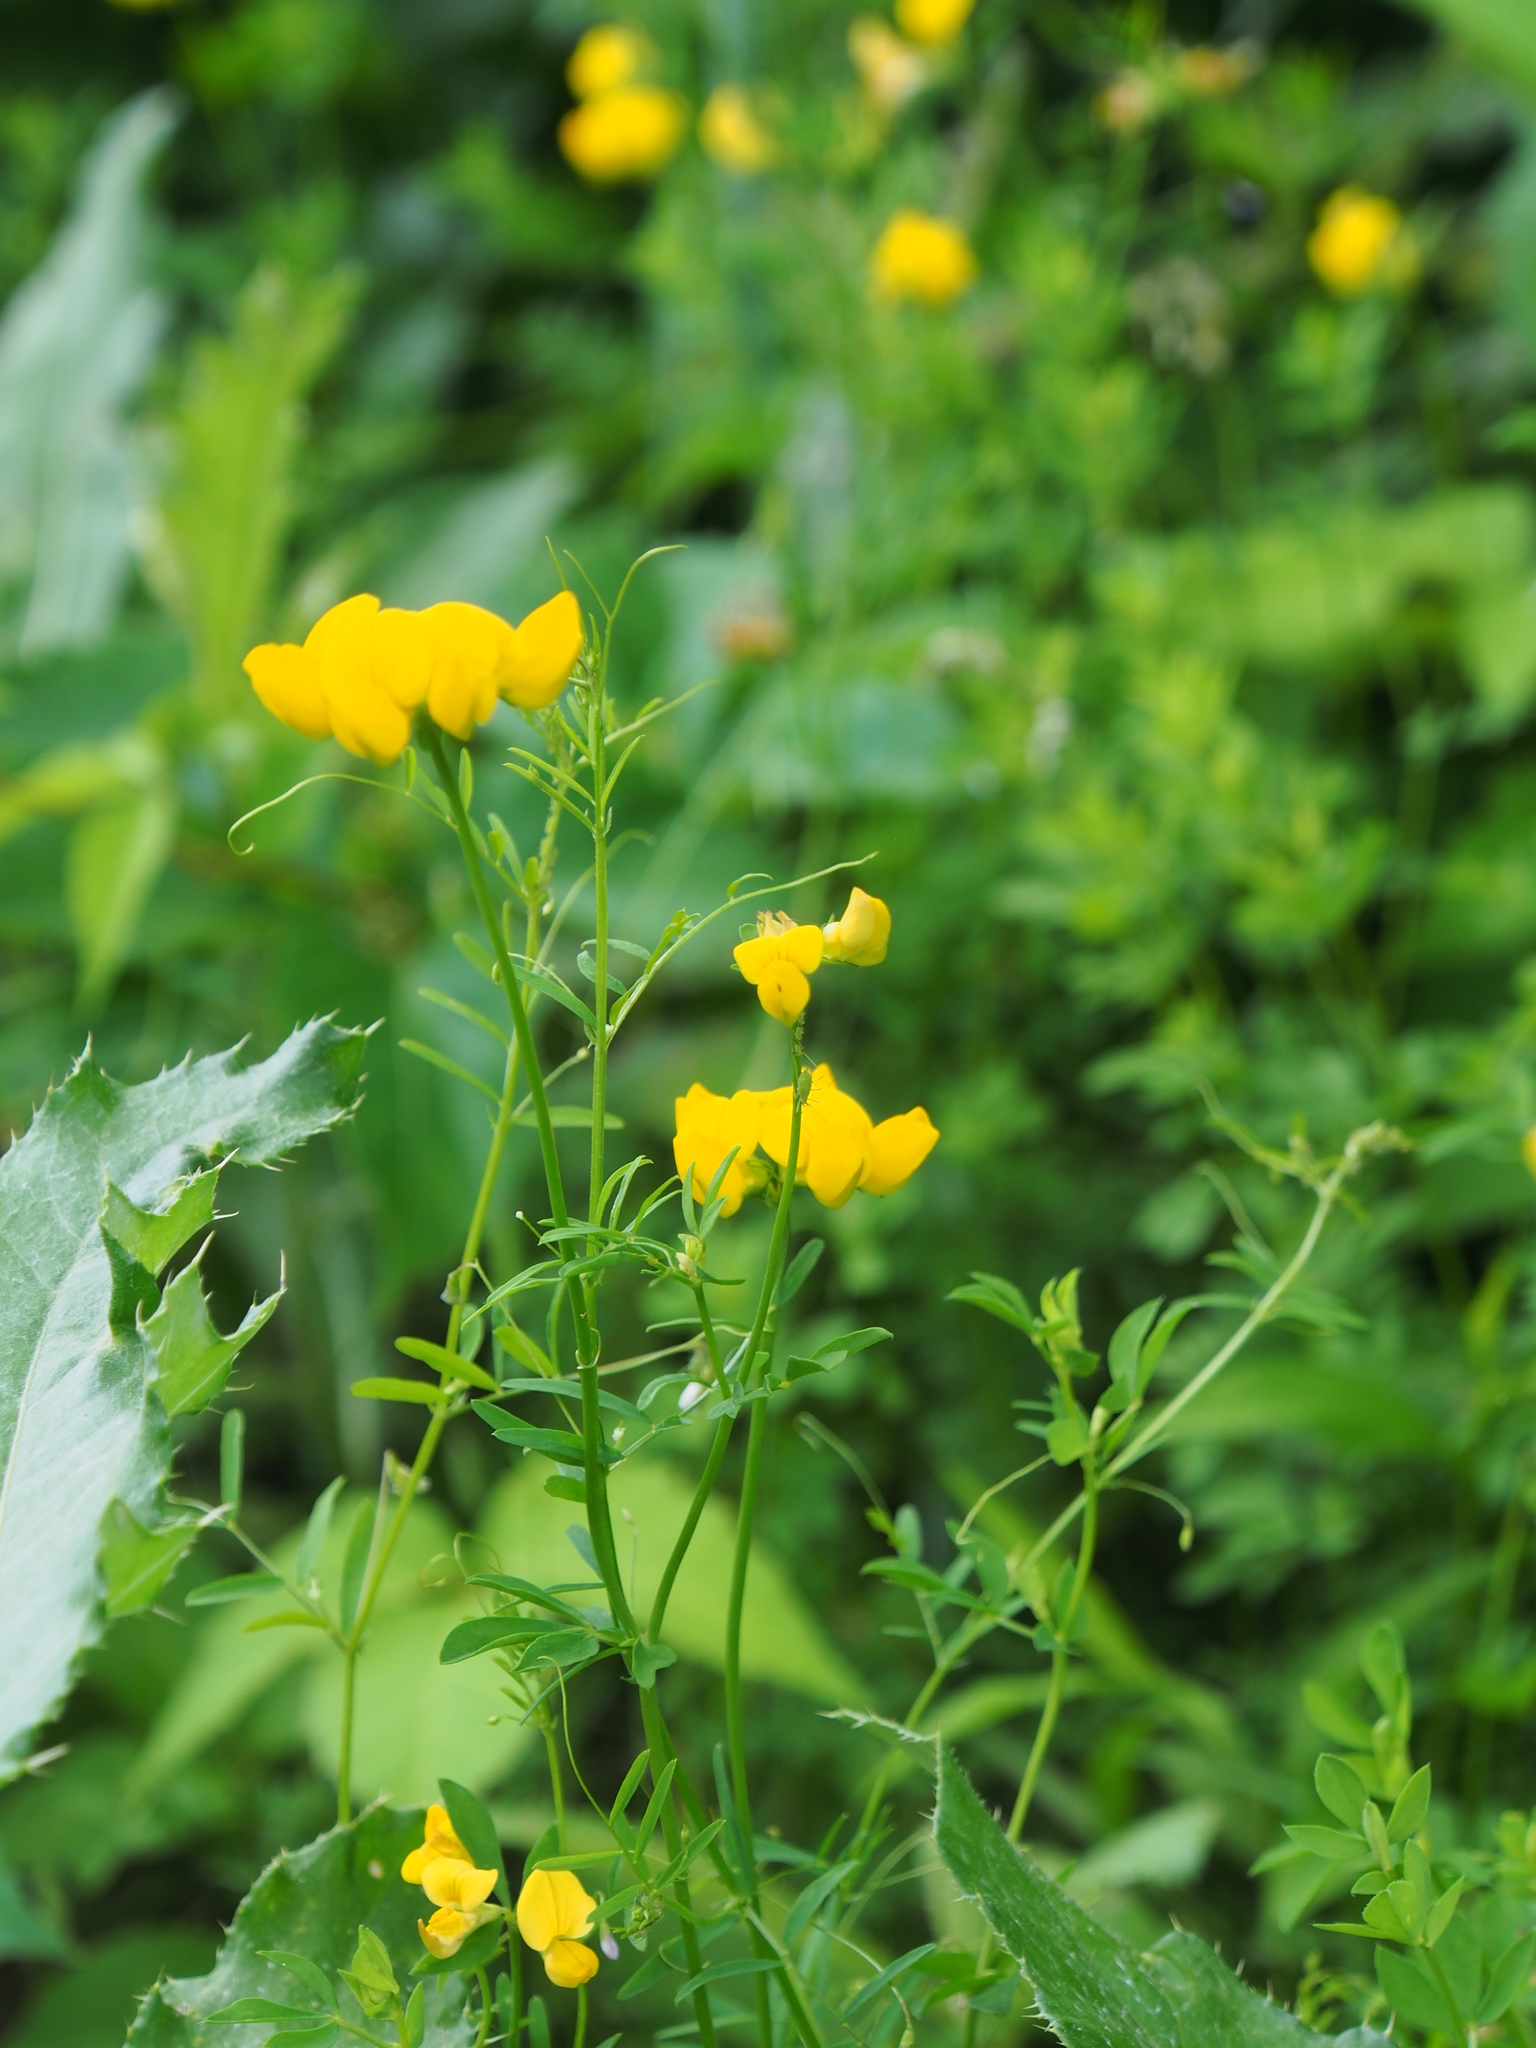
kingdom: Plantae
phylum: Tracheophyta
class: Magnoliopsida
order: Fabales
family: Fabaceae
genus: Lotus
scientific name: Lotus corniculatus
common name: Common bird's-foot-trefoil
